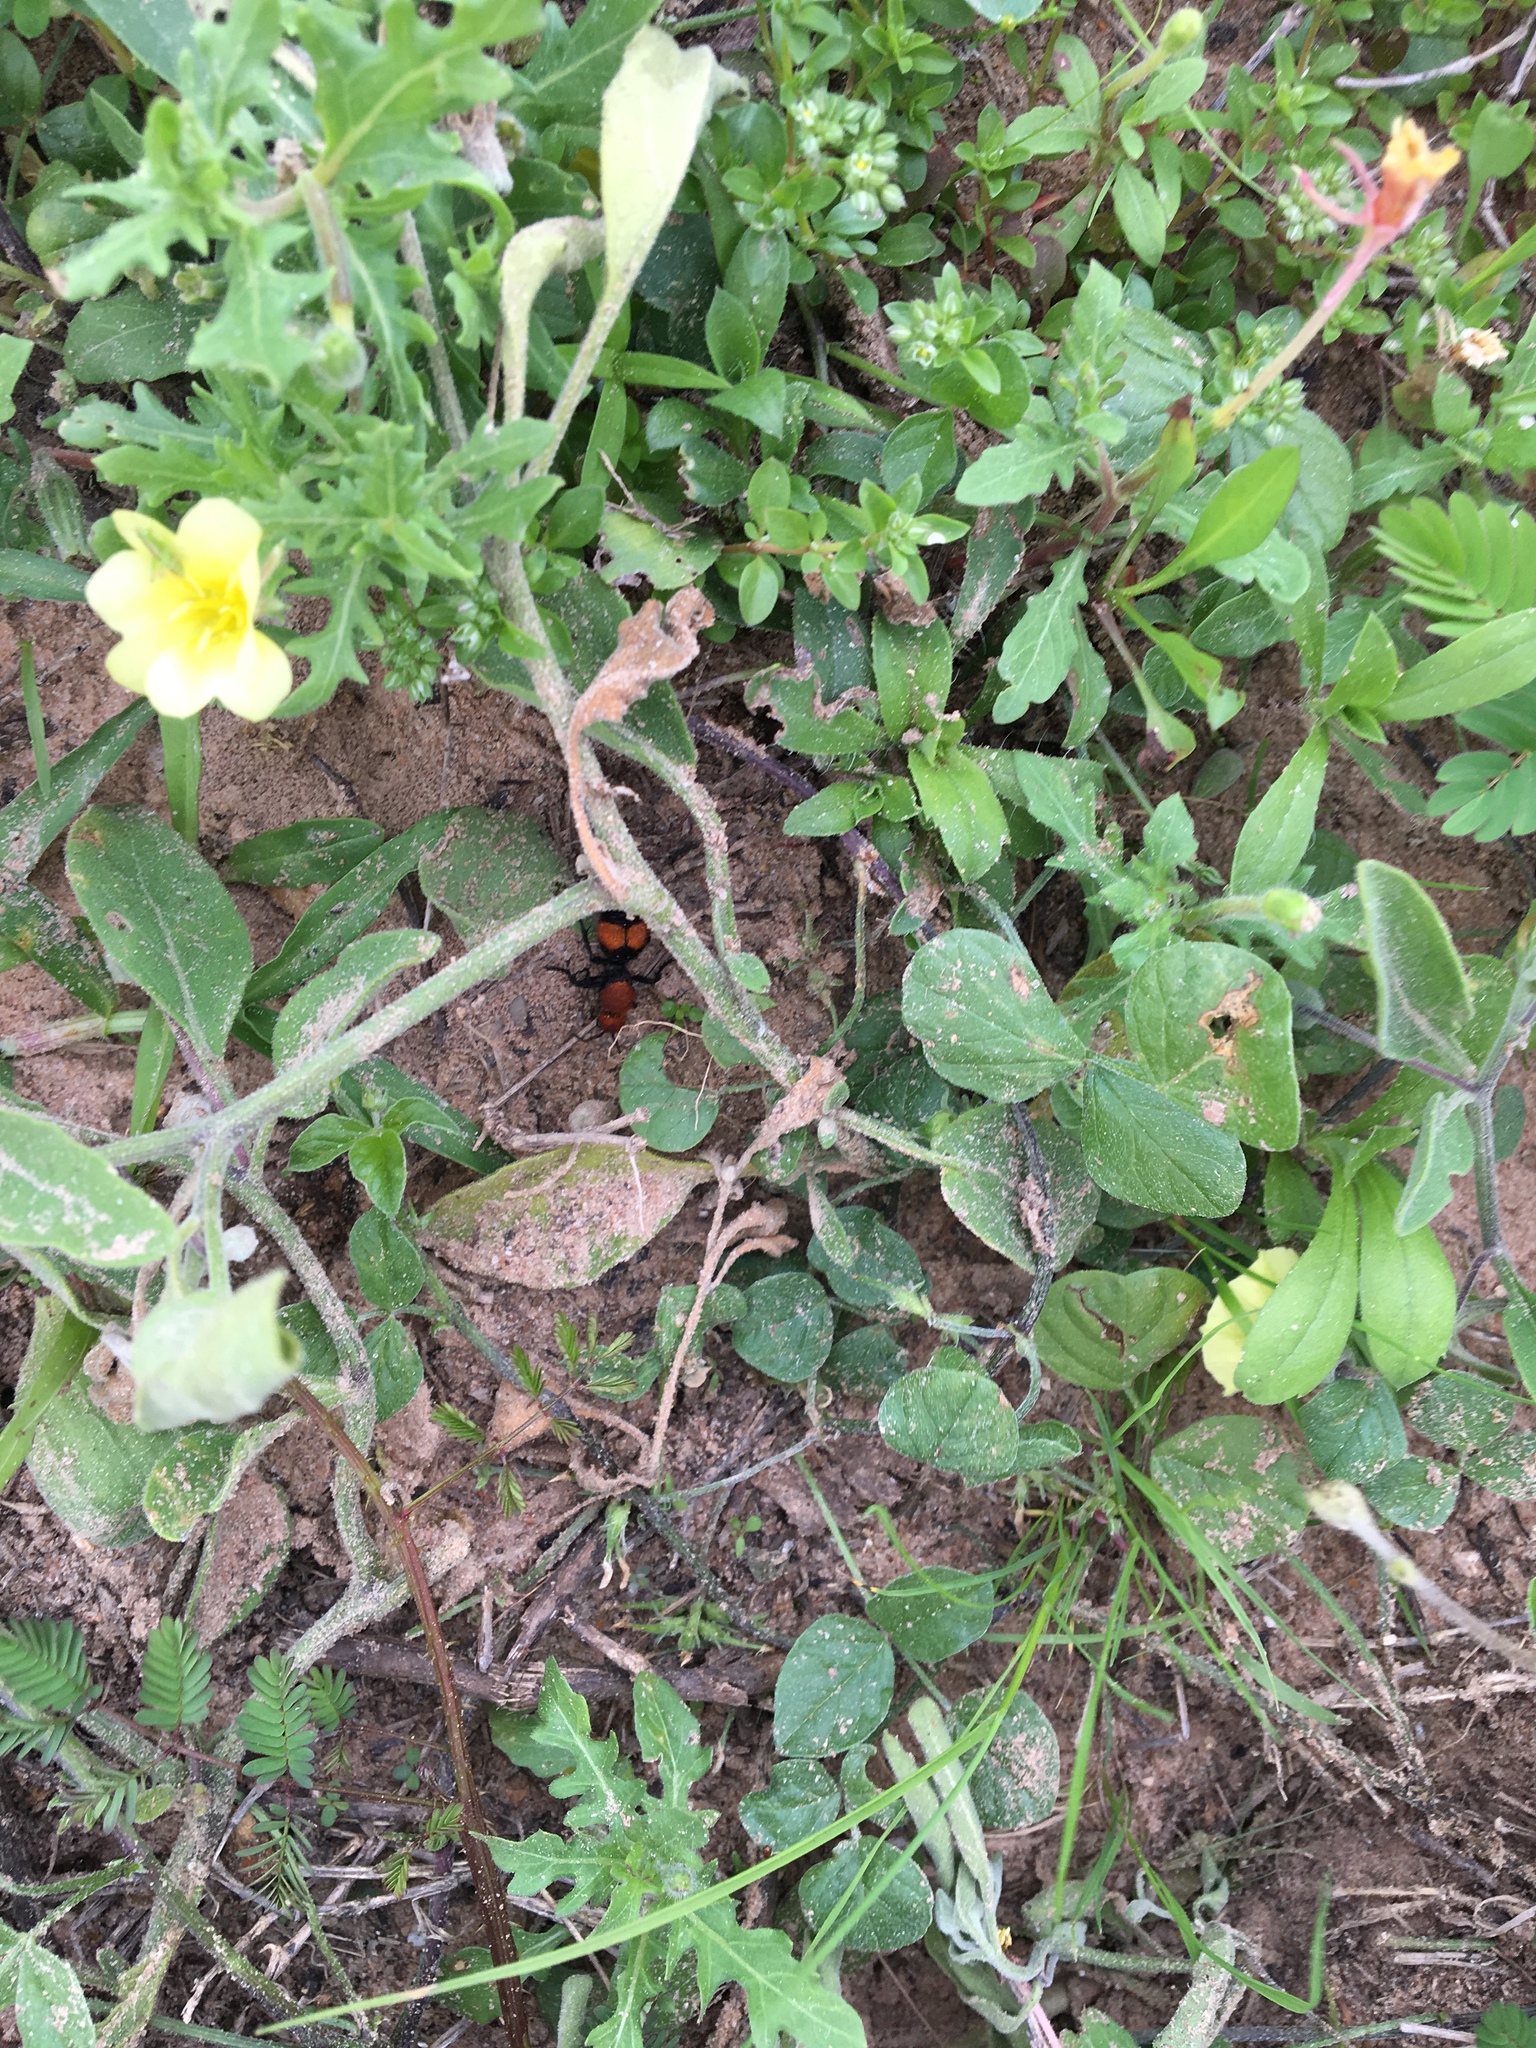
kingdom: Animalia
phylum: Arthropoda
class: Insecta
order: Hymenoptera
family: Mutillidae
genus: Dasymutilla
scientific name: Dasymutilla occidentalis
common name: Common eastern velvet ant
